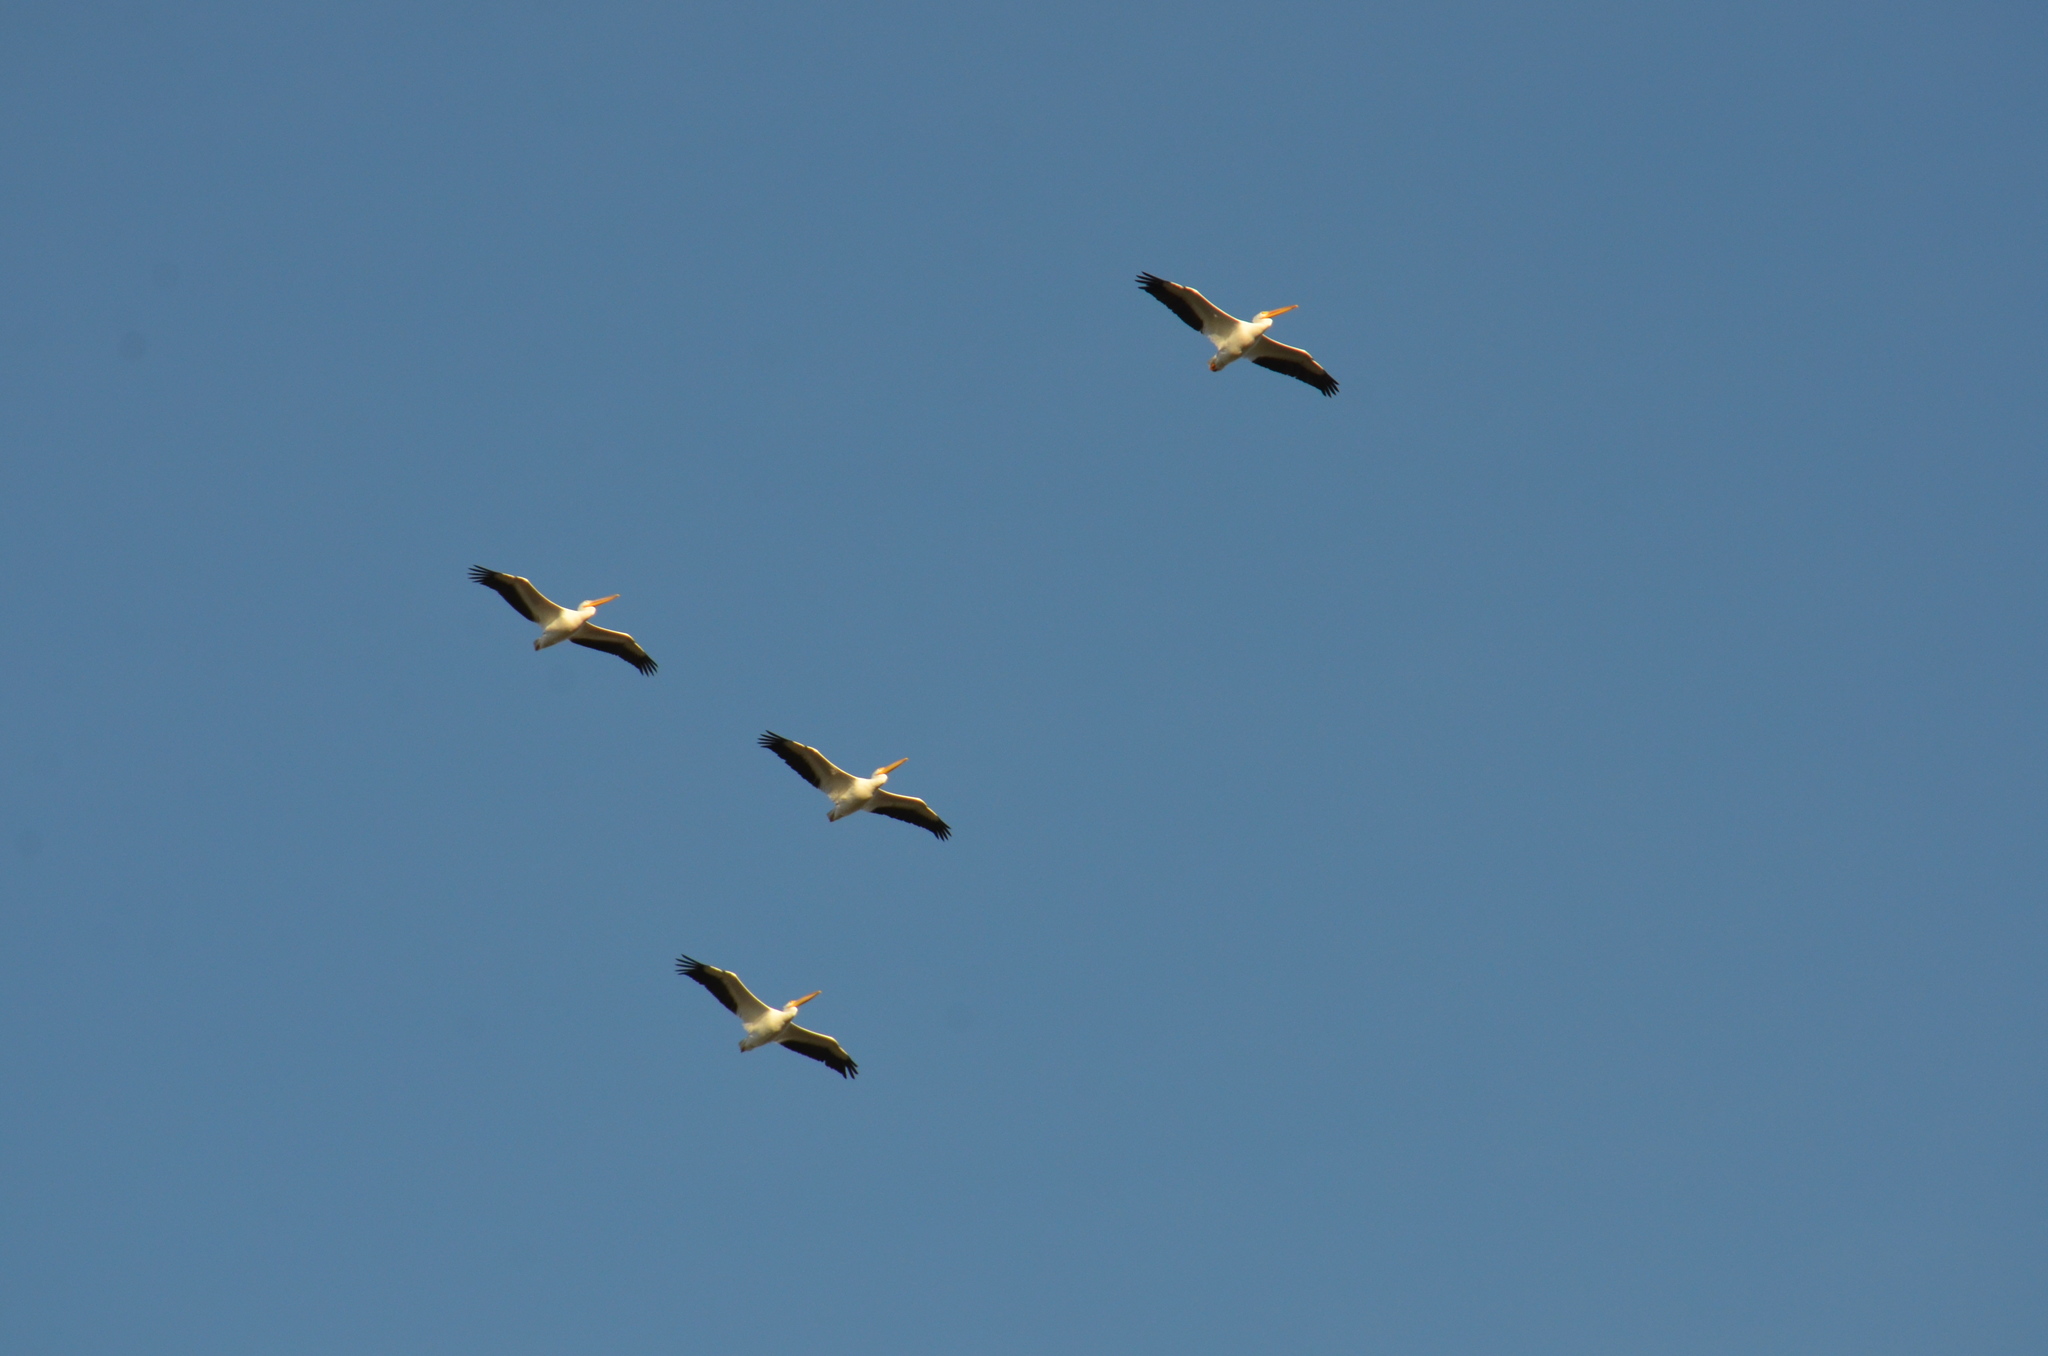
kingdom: Animalia
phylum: Chordata
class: Aves
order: Pelecaniformes
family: Pelecanidae
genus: Pelecanus
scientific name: Pelecanus erythrorhynchos
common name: American white pelican
